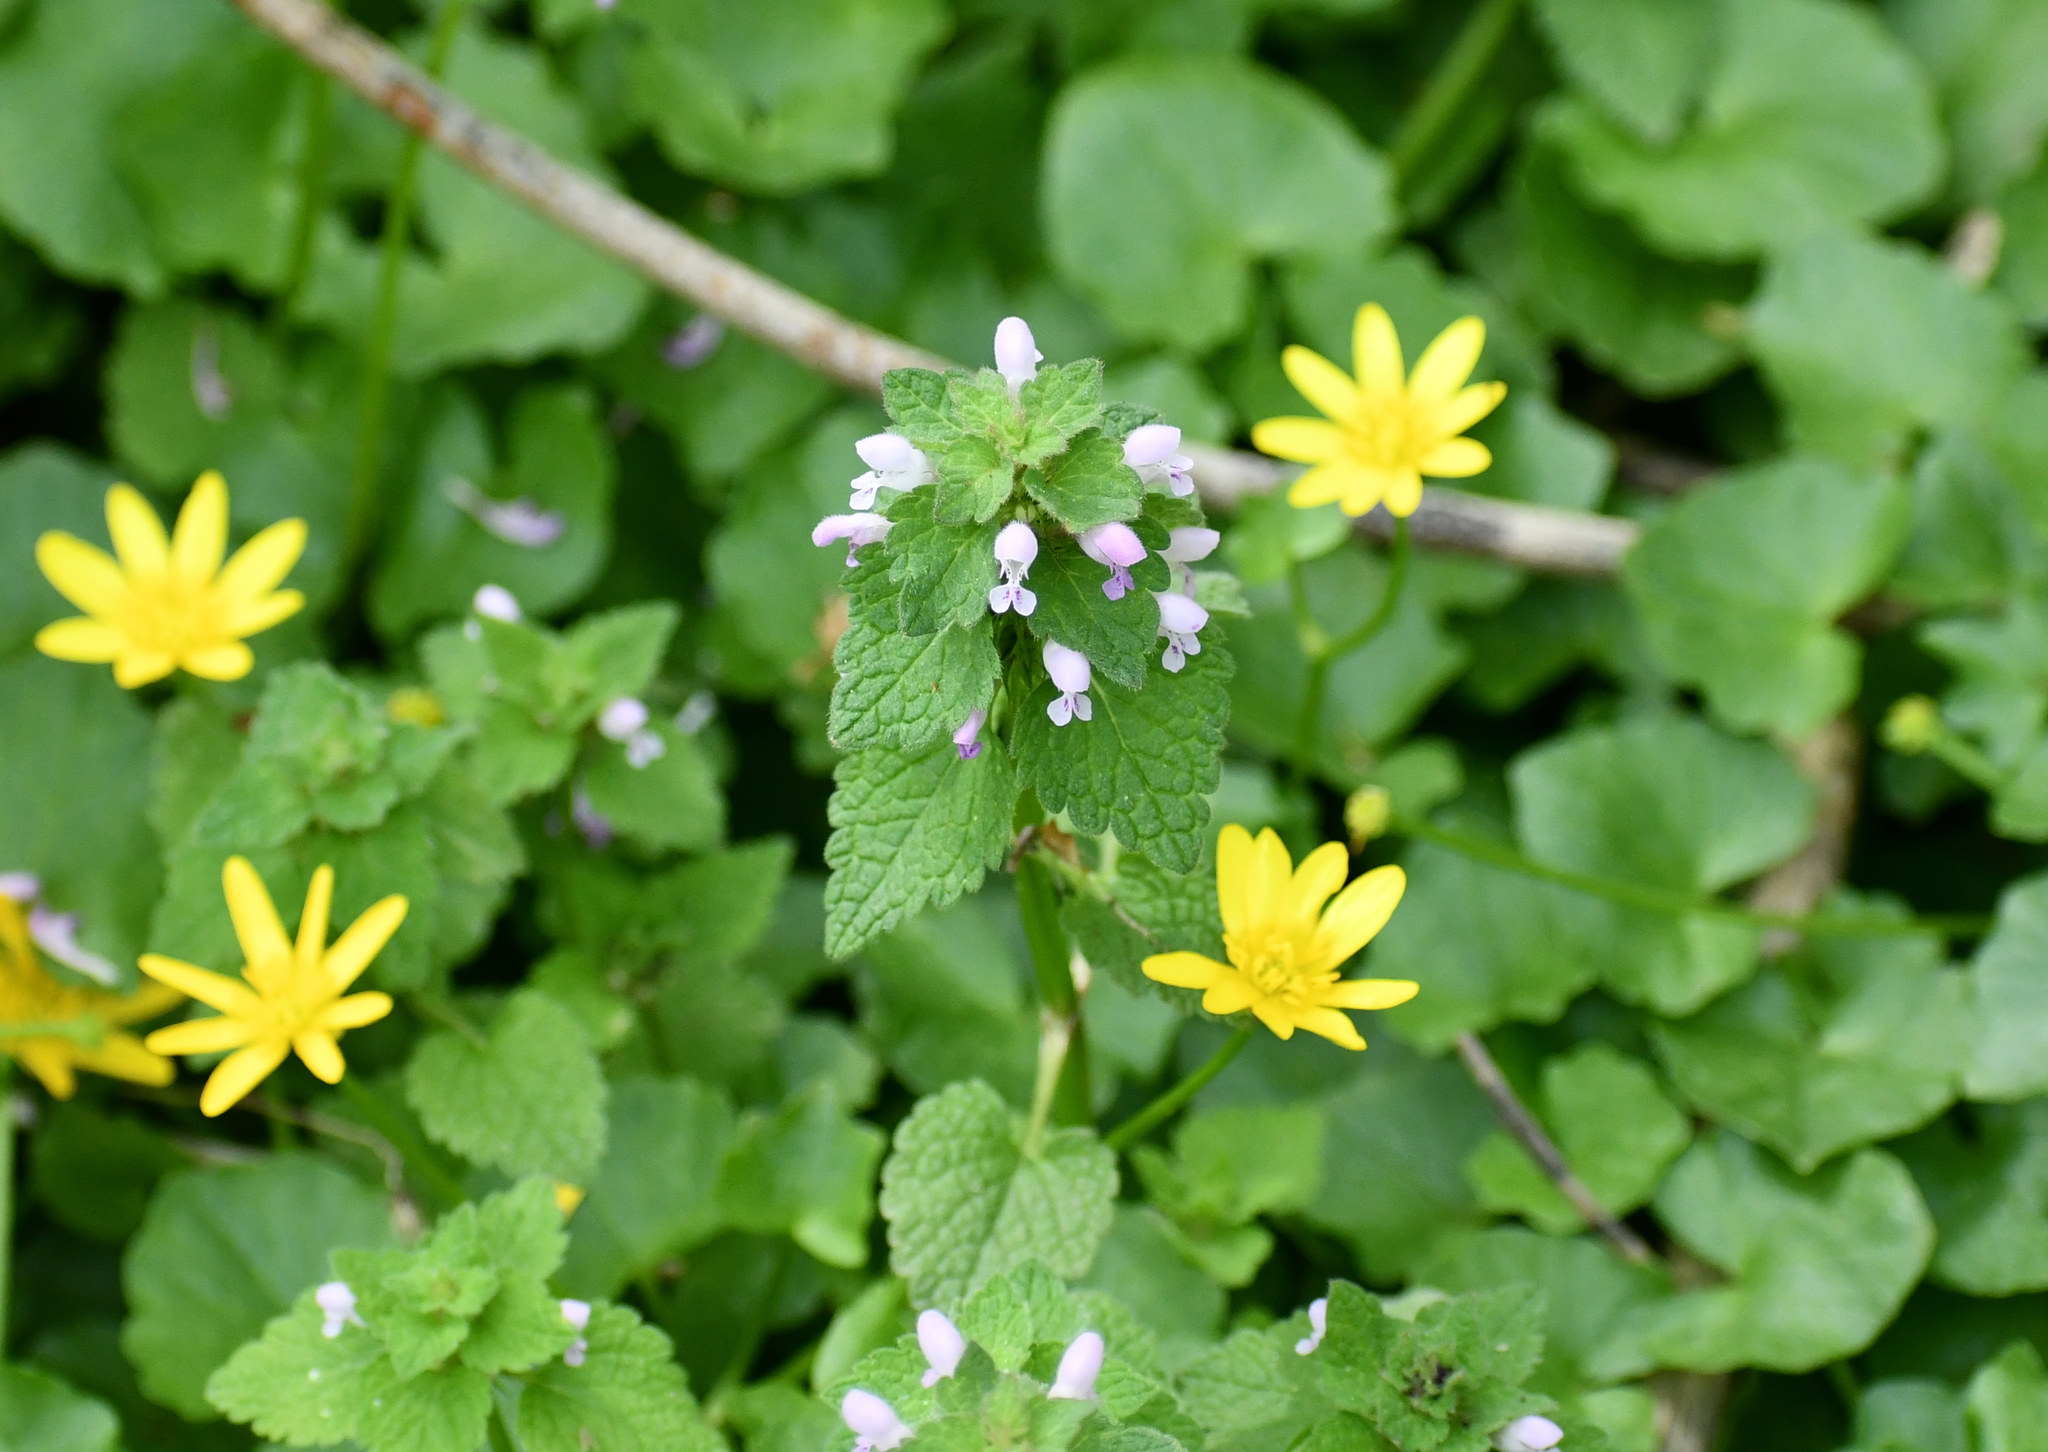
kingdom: Plantae
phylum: Tracheophyta
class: Magnoliopsida
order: Lamiales
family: Lamiaceae
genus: Lamium
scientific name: Lamium purpureum
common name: Red dead-nettle
